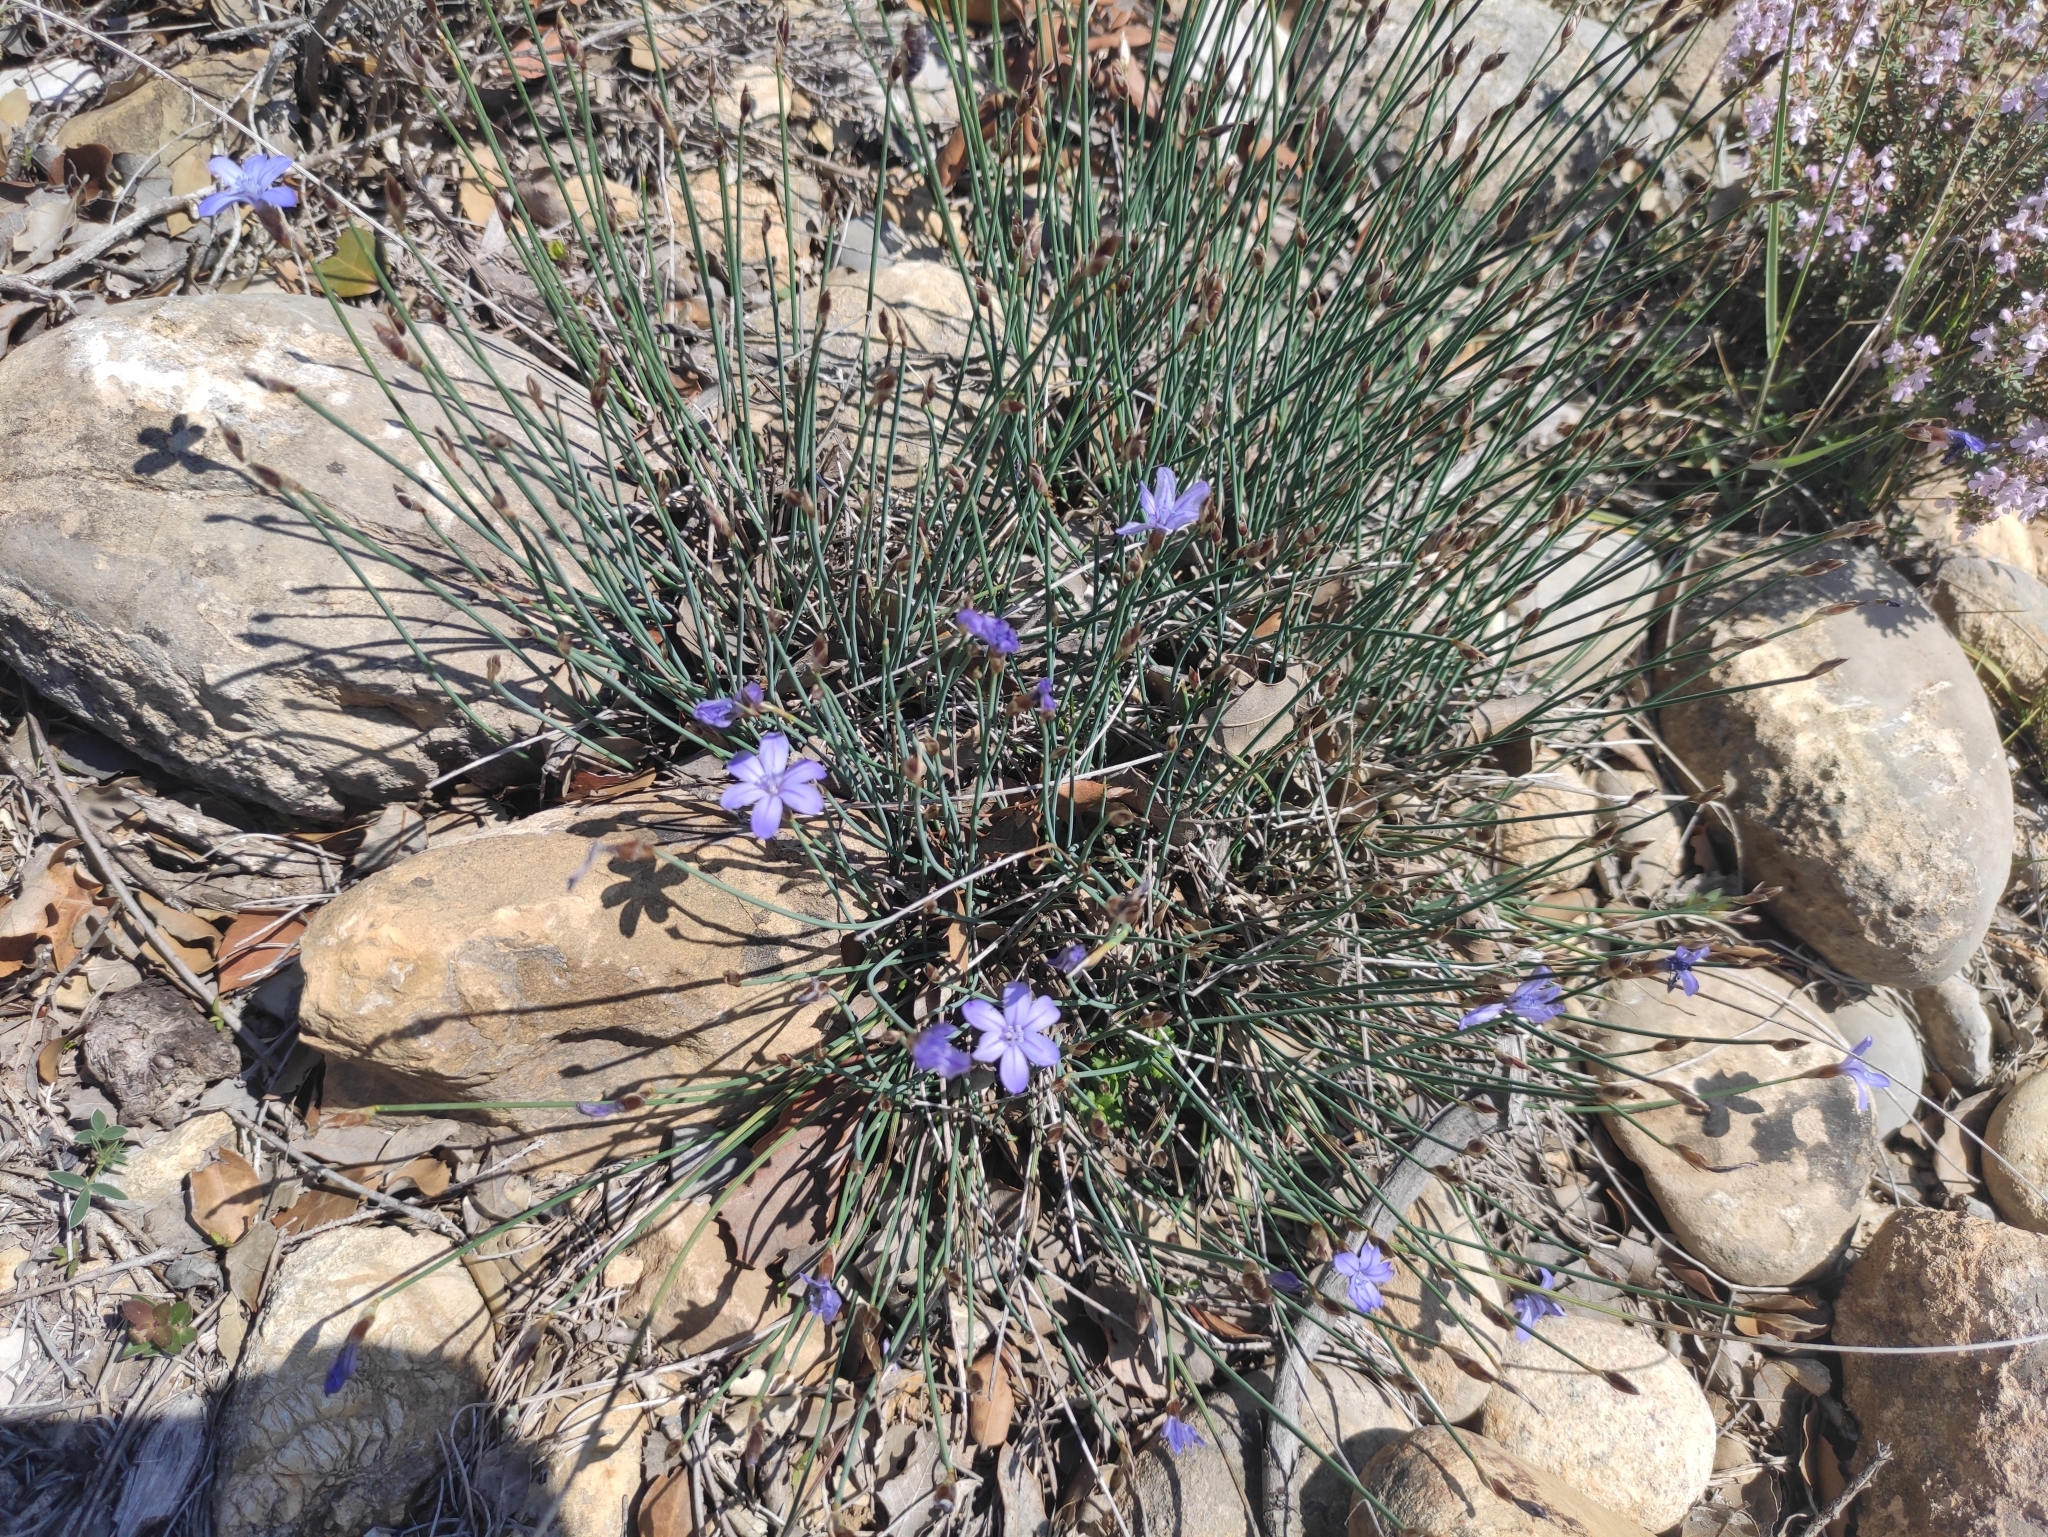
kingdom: Plantae
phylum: Tracheophyta
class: Liliopsida
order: Asparagales
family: Asparagaceae
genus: Aphyllanthes
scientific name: Aphyllanthes monspeliensis
